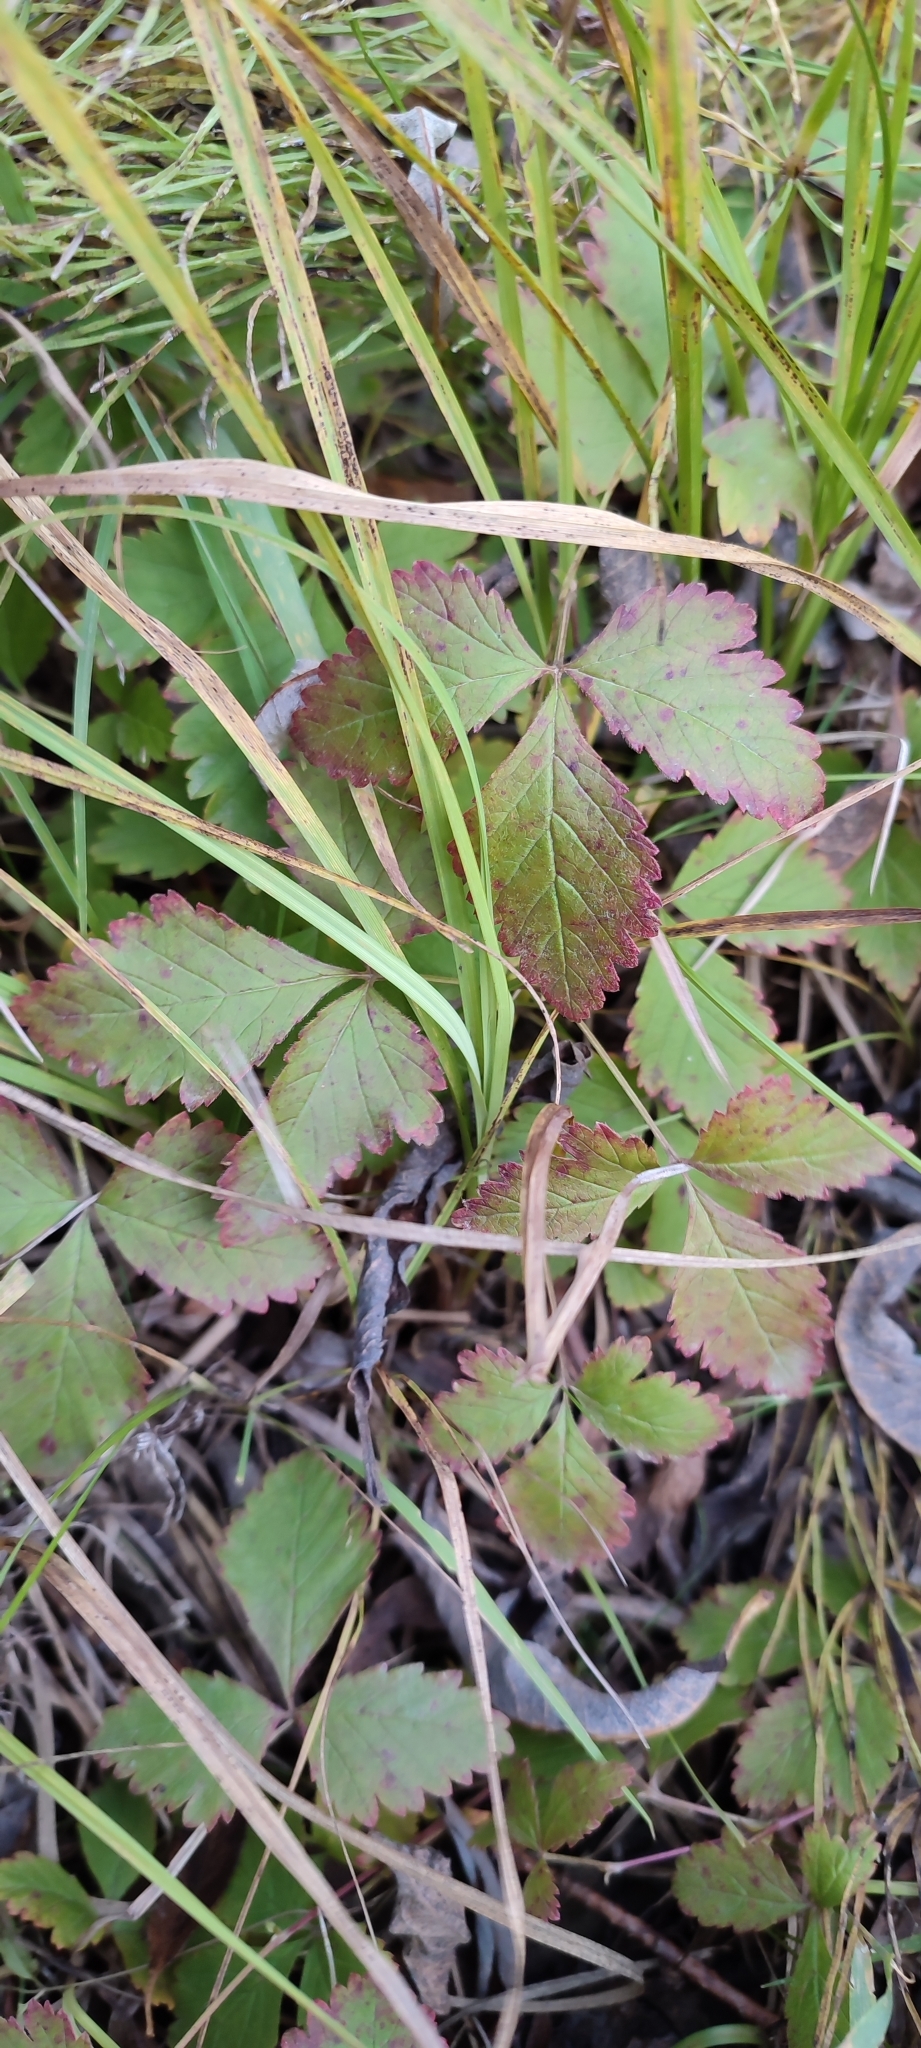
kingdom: Plantae
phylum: Tracheophyta
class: Magnoliopsida
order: Rosales
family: Rosaceae
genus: Rubus
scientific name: Rubus arcticus
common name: Arctic bramble
